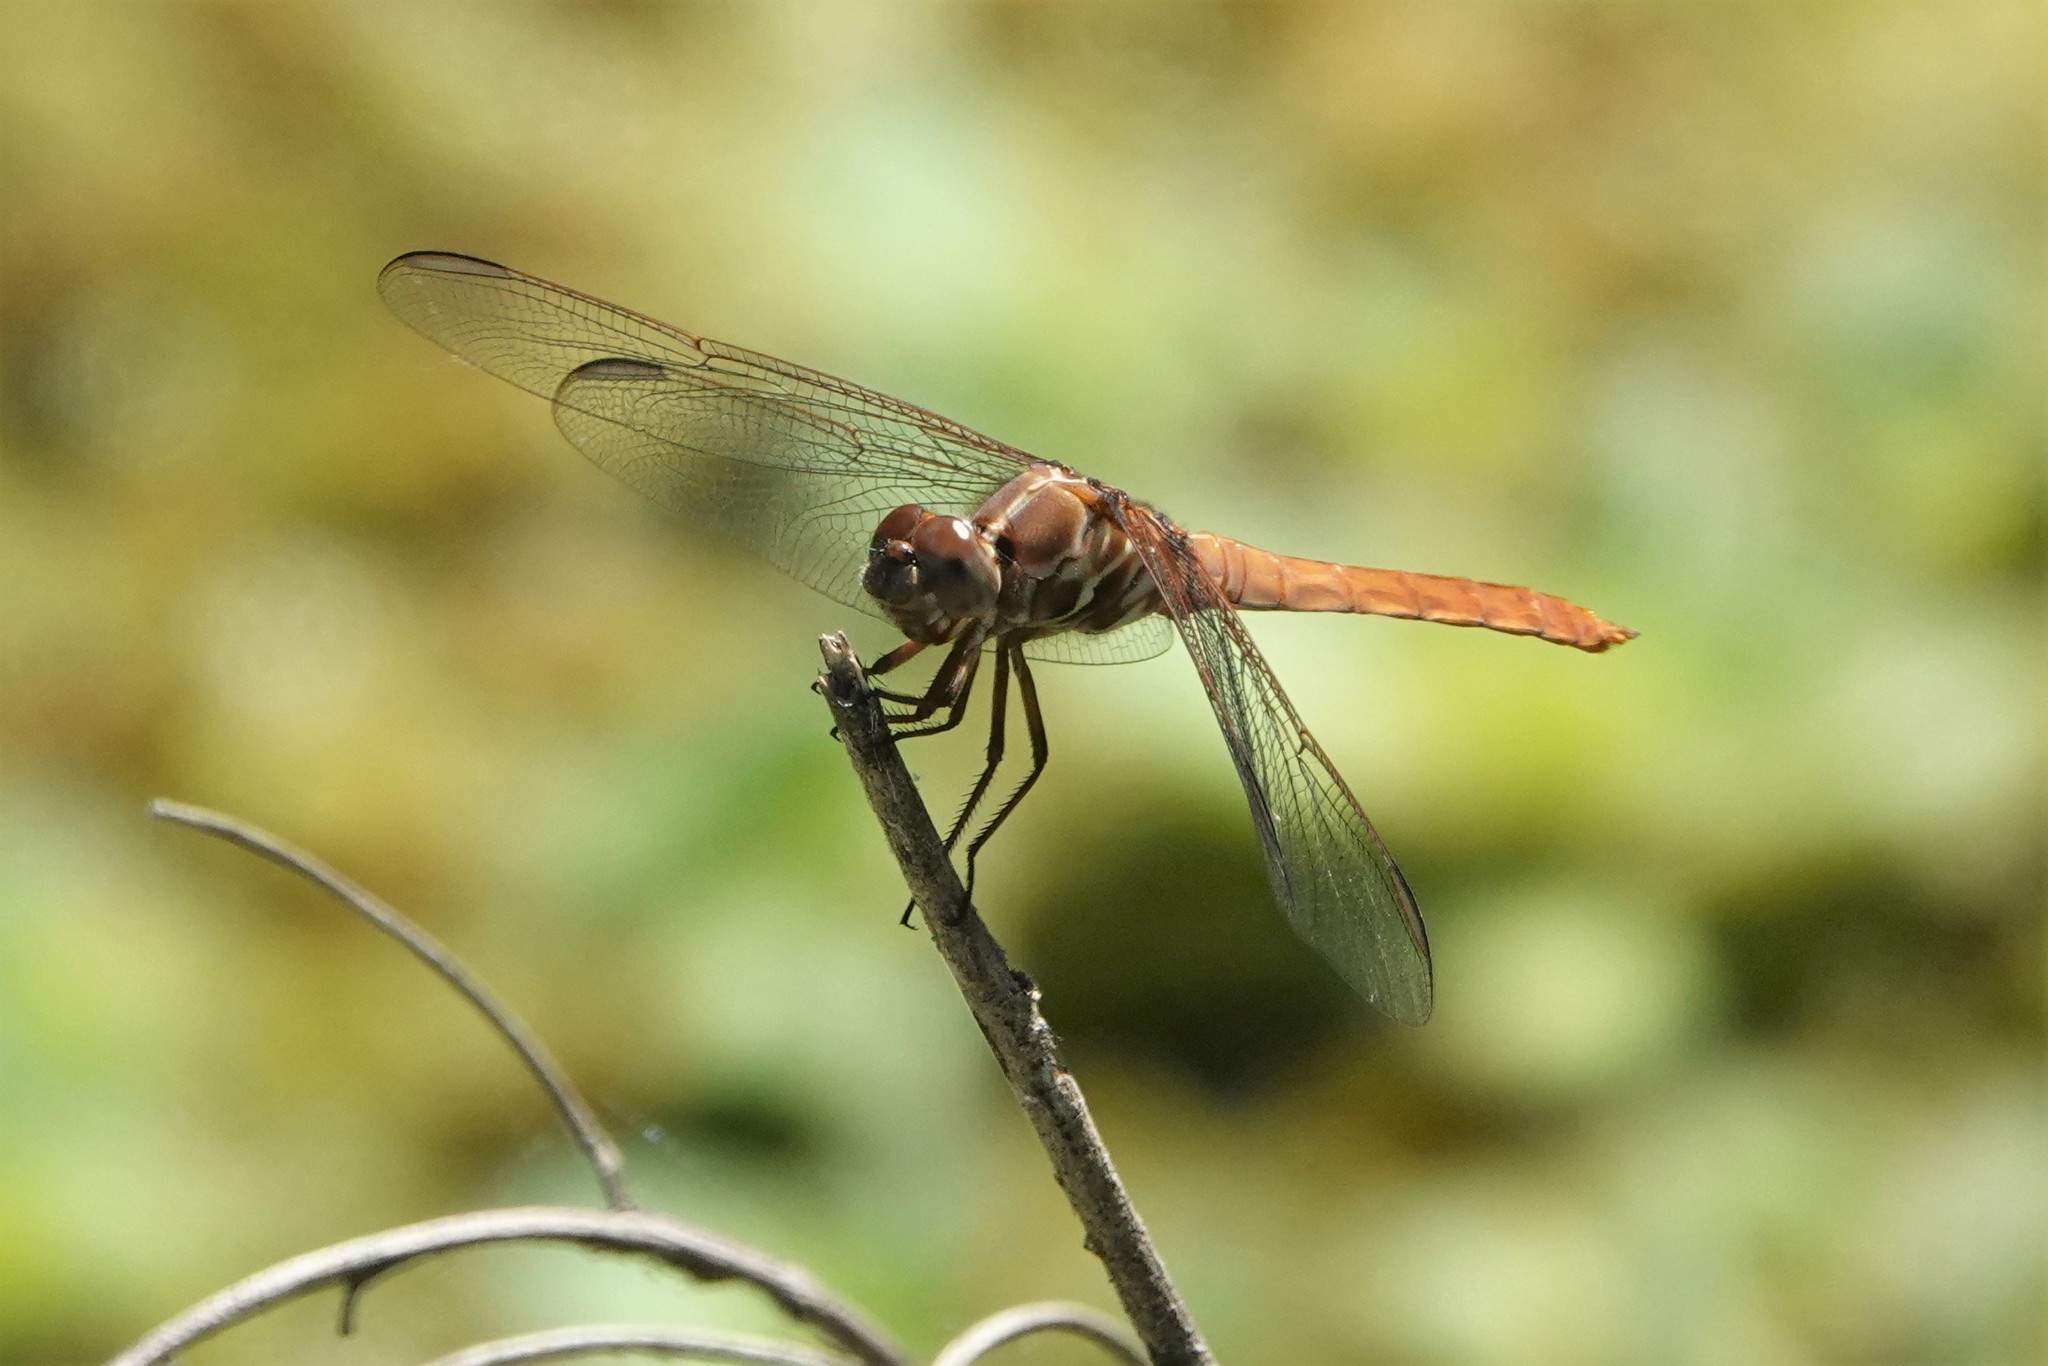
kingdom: Animalia
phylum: Arthropoda
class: Insecta
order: Odonata
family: Libellulidae
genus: Orthemis
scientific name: Orthemis ferruginea
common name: Roseate skimmer
